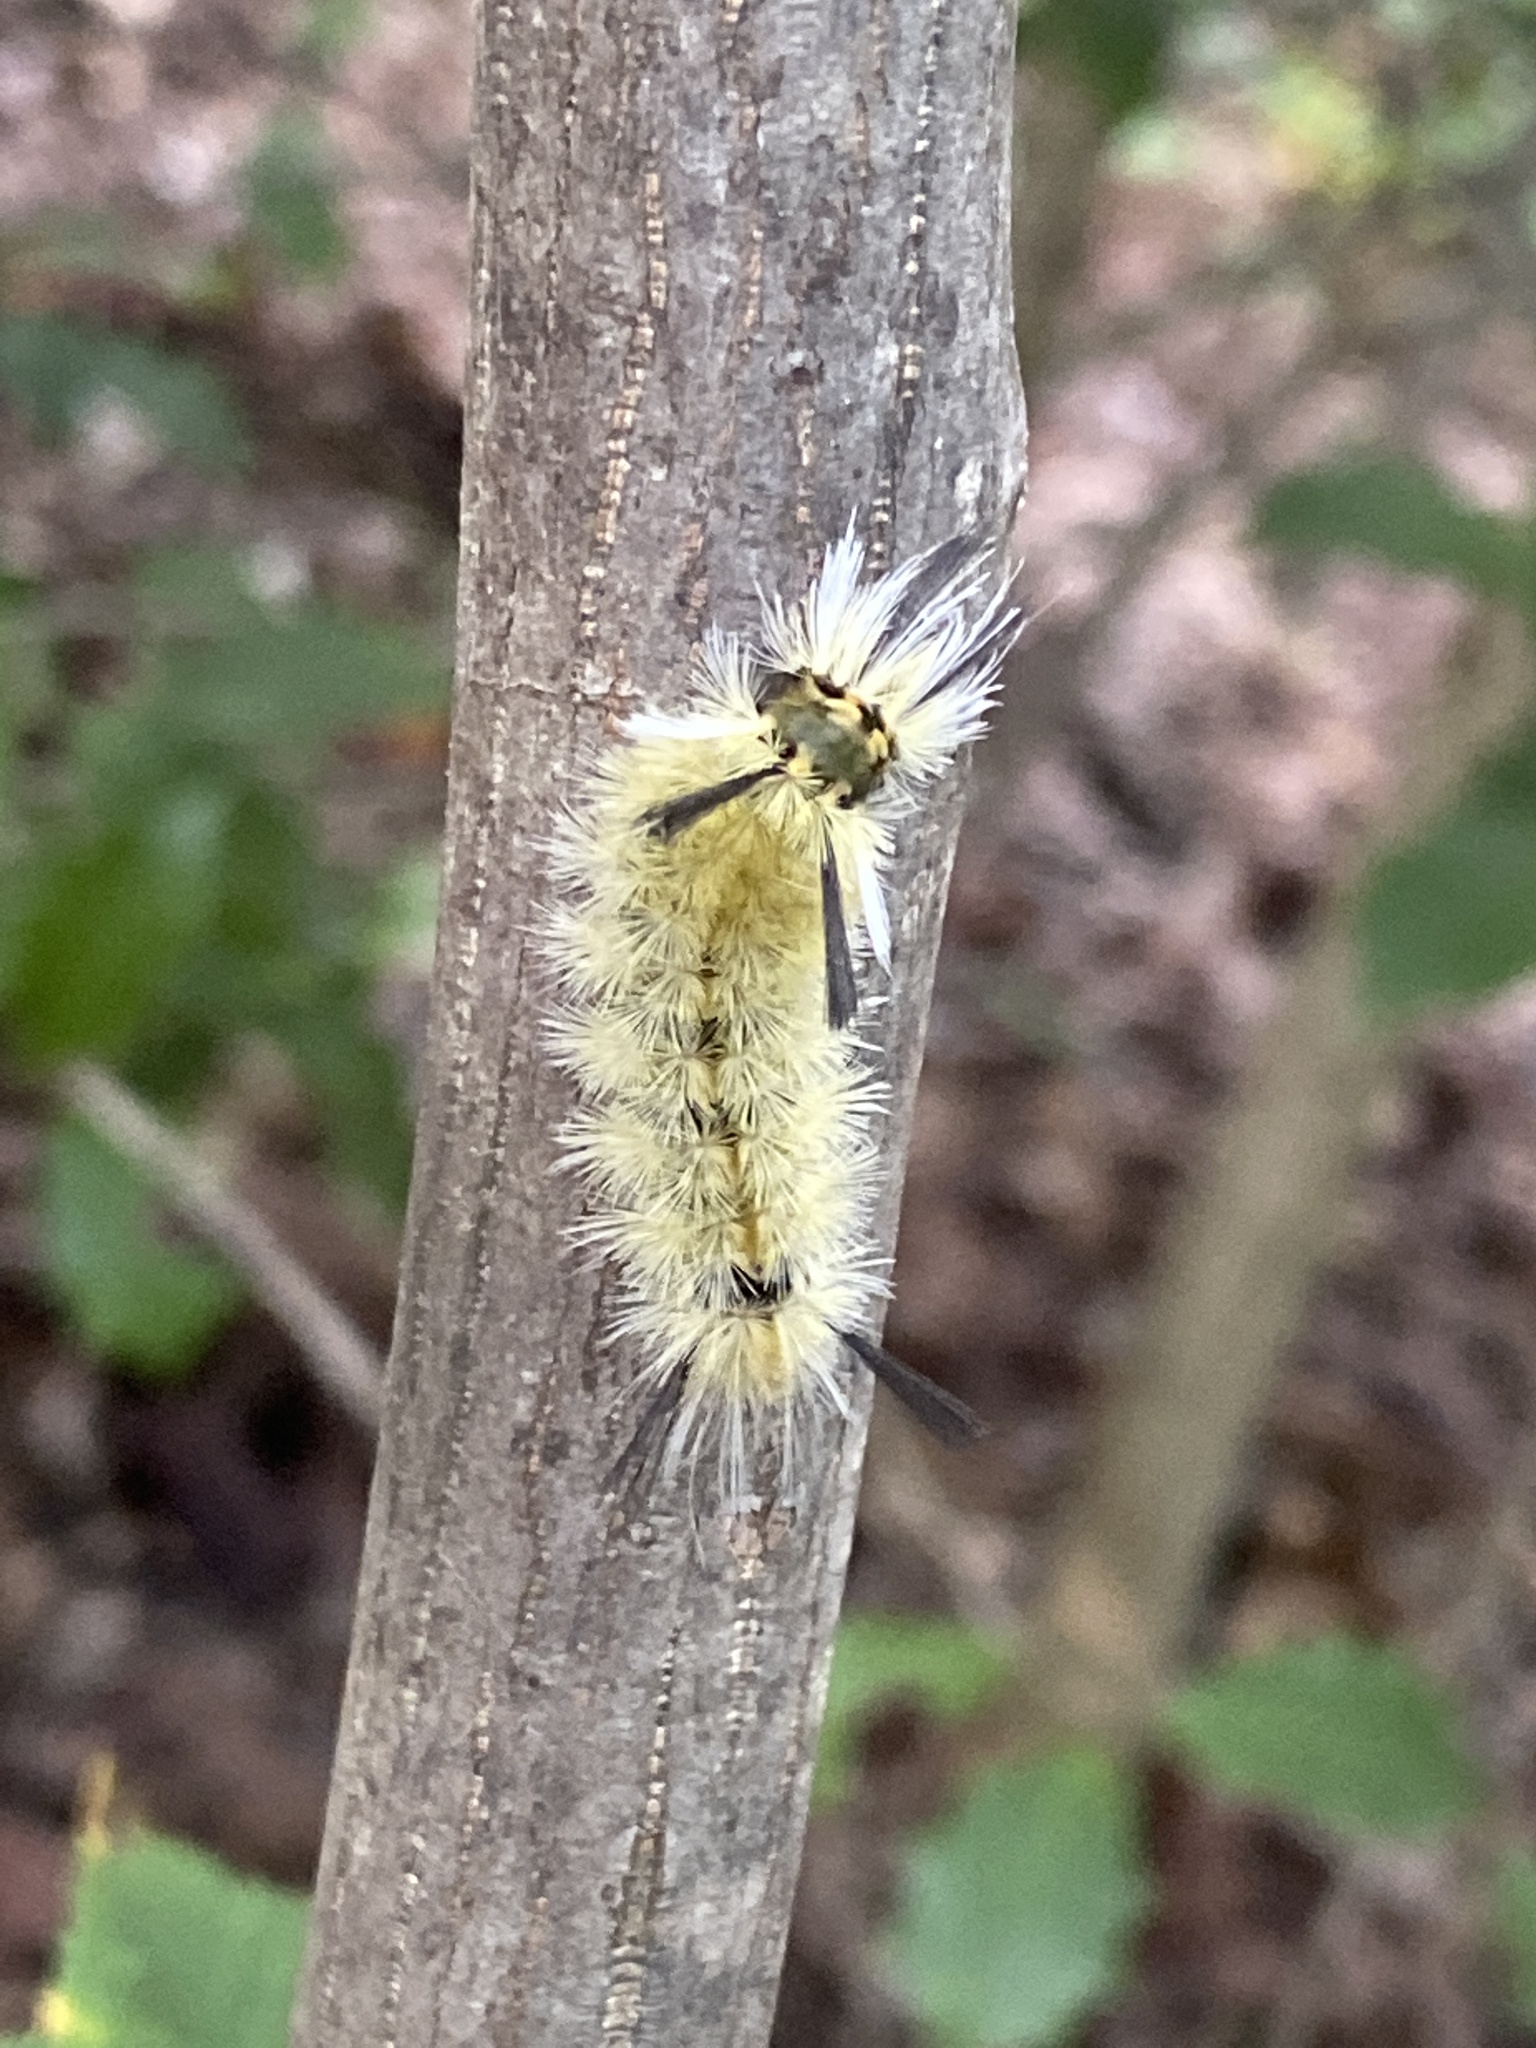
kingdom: Animalia
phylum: Arthropoda
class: Insecta
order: Lepidoptera
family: Erebidae
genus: Halysidota
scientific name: Halysidota tessellaris
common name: Banded tussock moth
